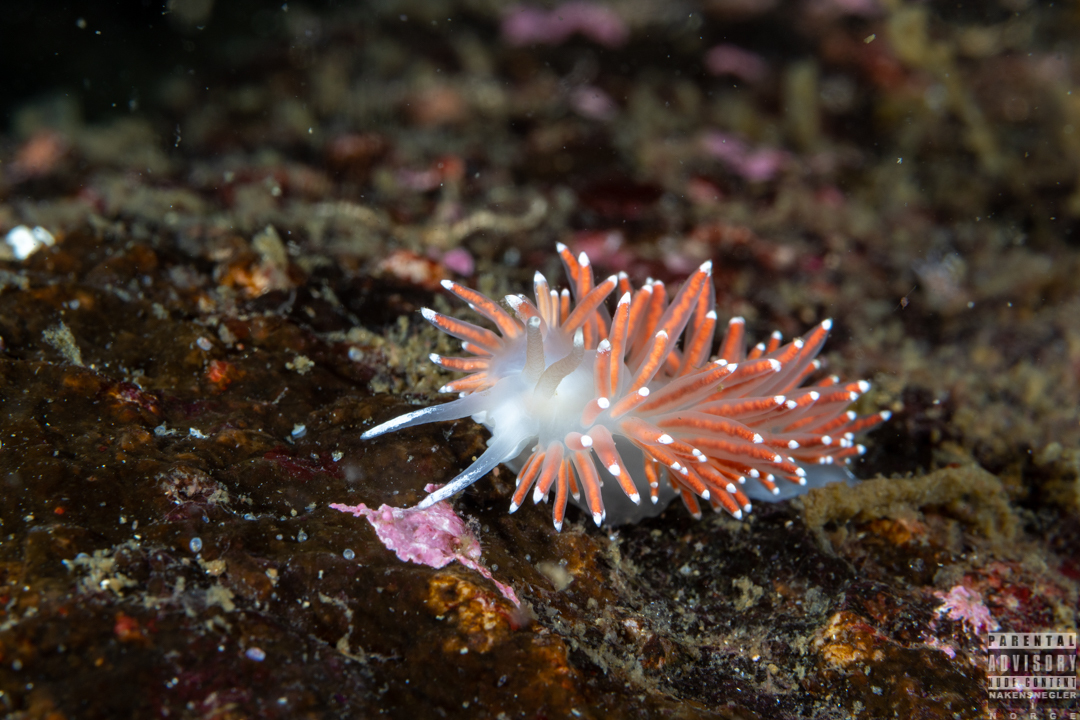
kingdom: Animalia
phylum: Mollusca
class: Gastropoda
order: Nudibranchia
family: Coryphellidae
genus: Coryphella
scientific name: Coryphella browni
